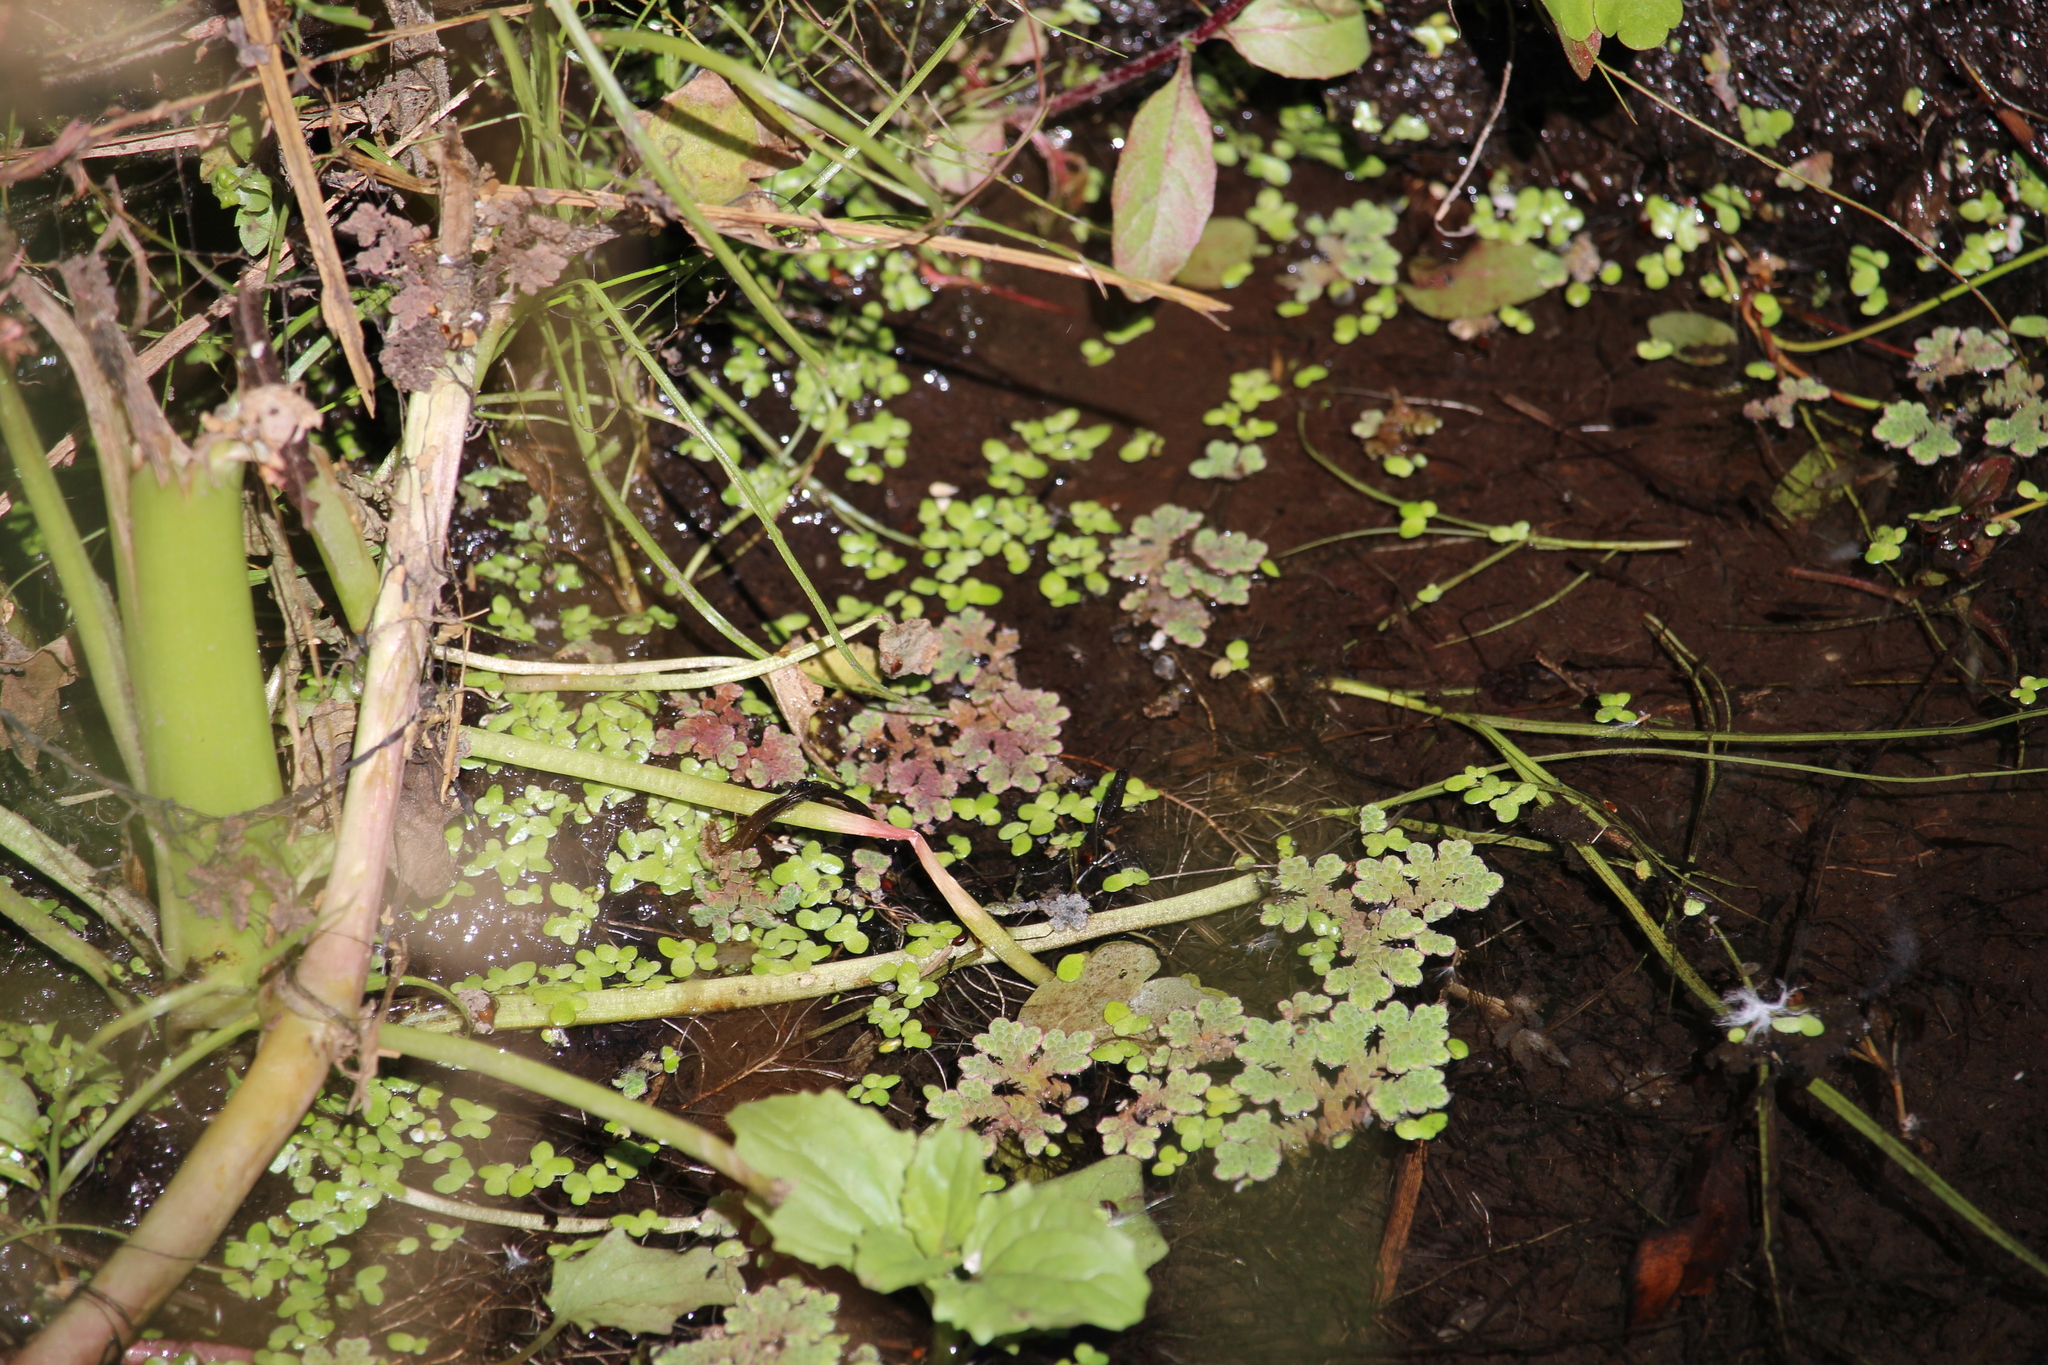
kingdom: Plantae
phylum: Tracheophyta
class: Polypodiopsida
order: Salviniales
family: Salviniaceae
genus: Azolla
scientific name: Azolla rubra
